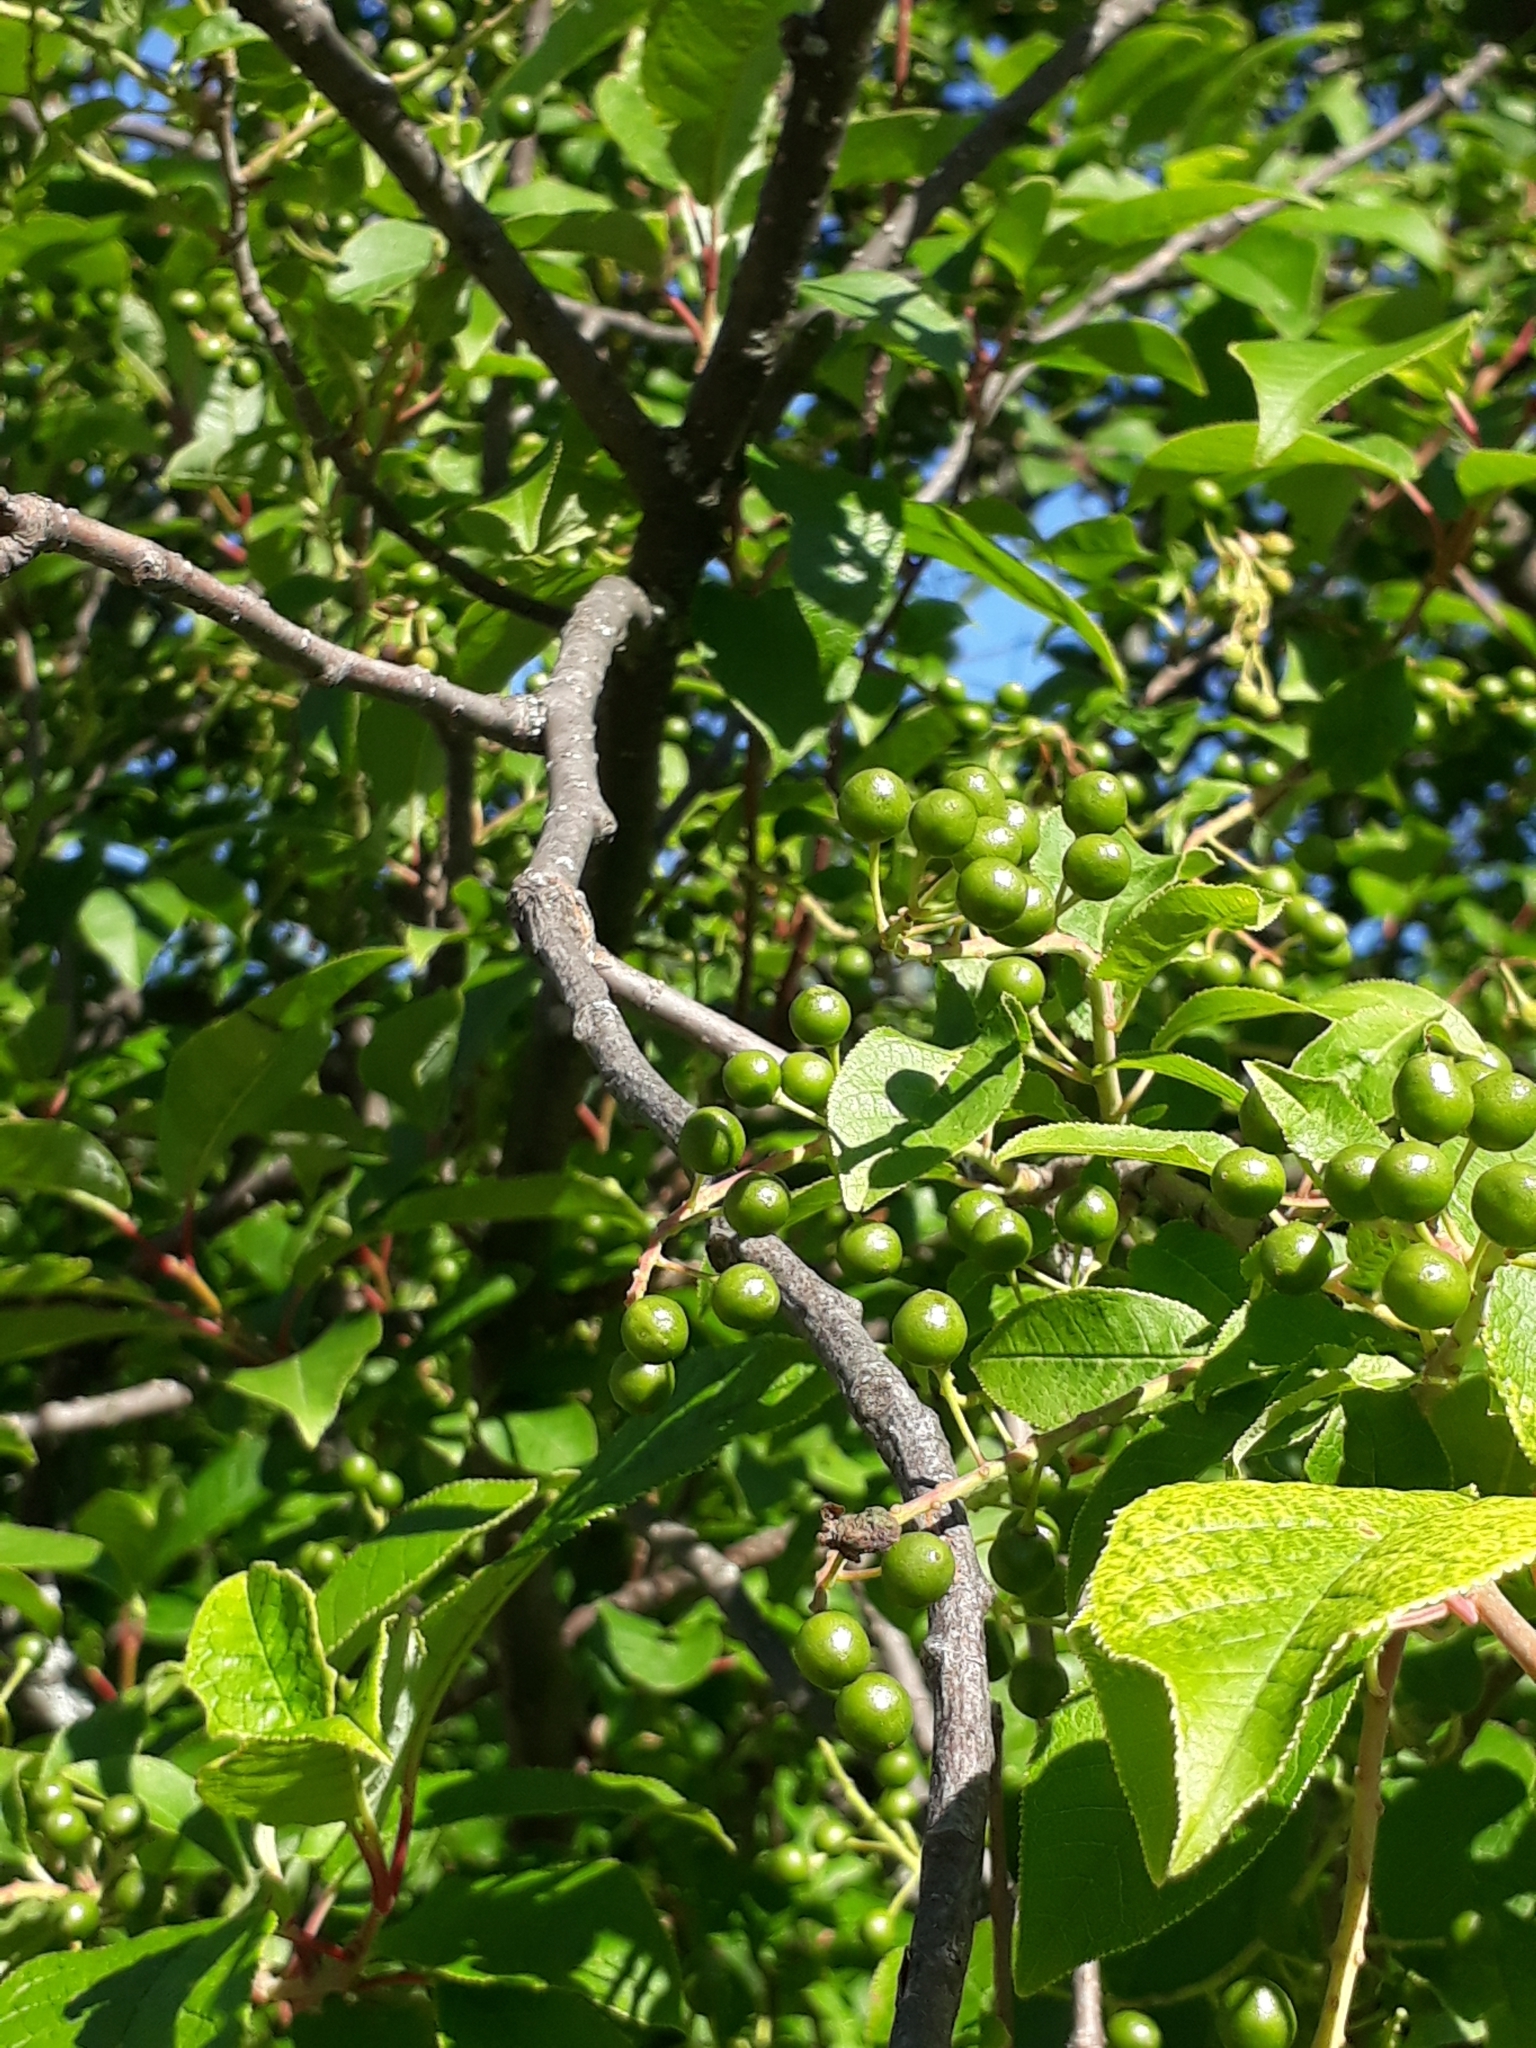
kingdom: Plantae
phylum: Tracheophyta
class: Magnoliopsida
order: Rosales
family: Rosaceae
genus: Prunus
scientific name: Prunus padus
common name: Bird cherry
